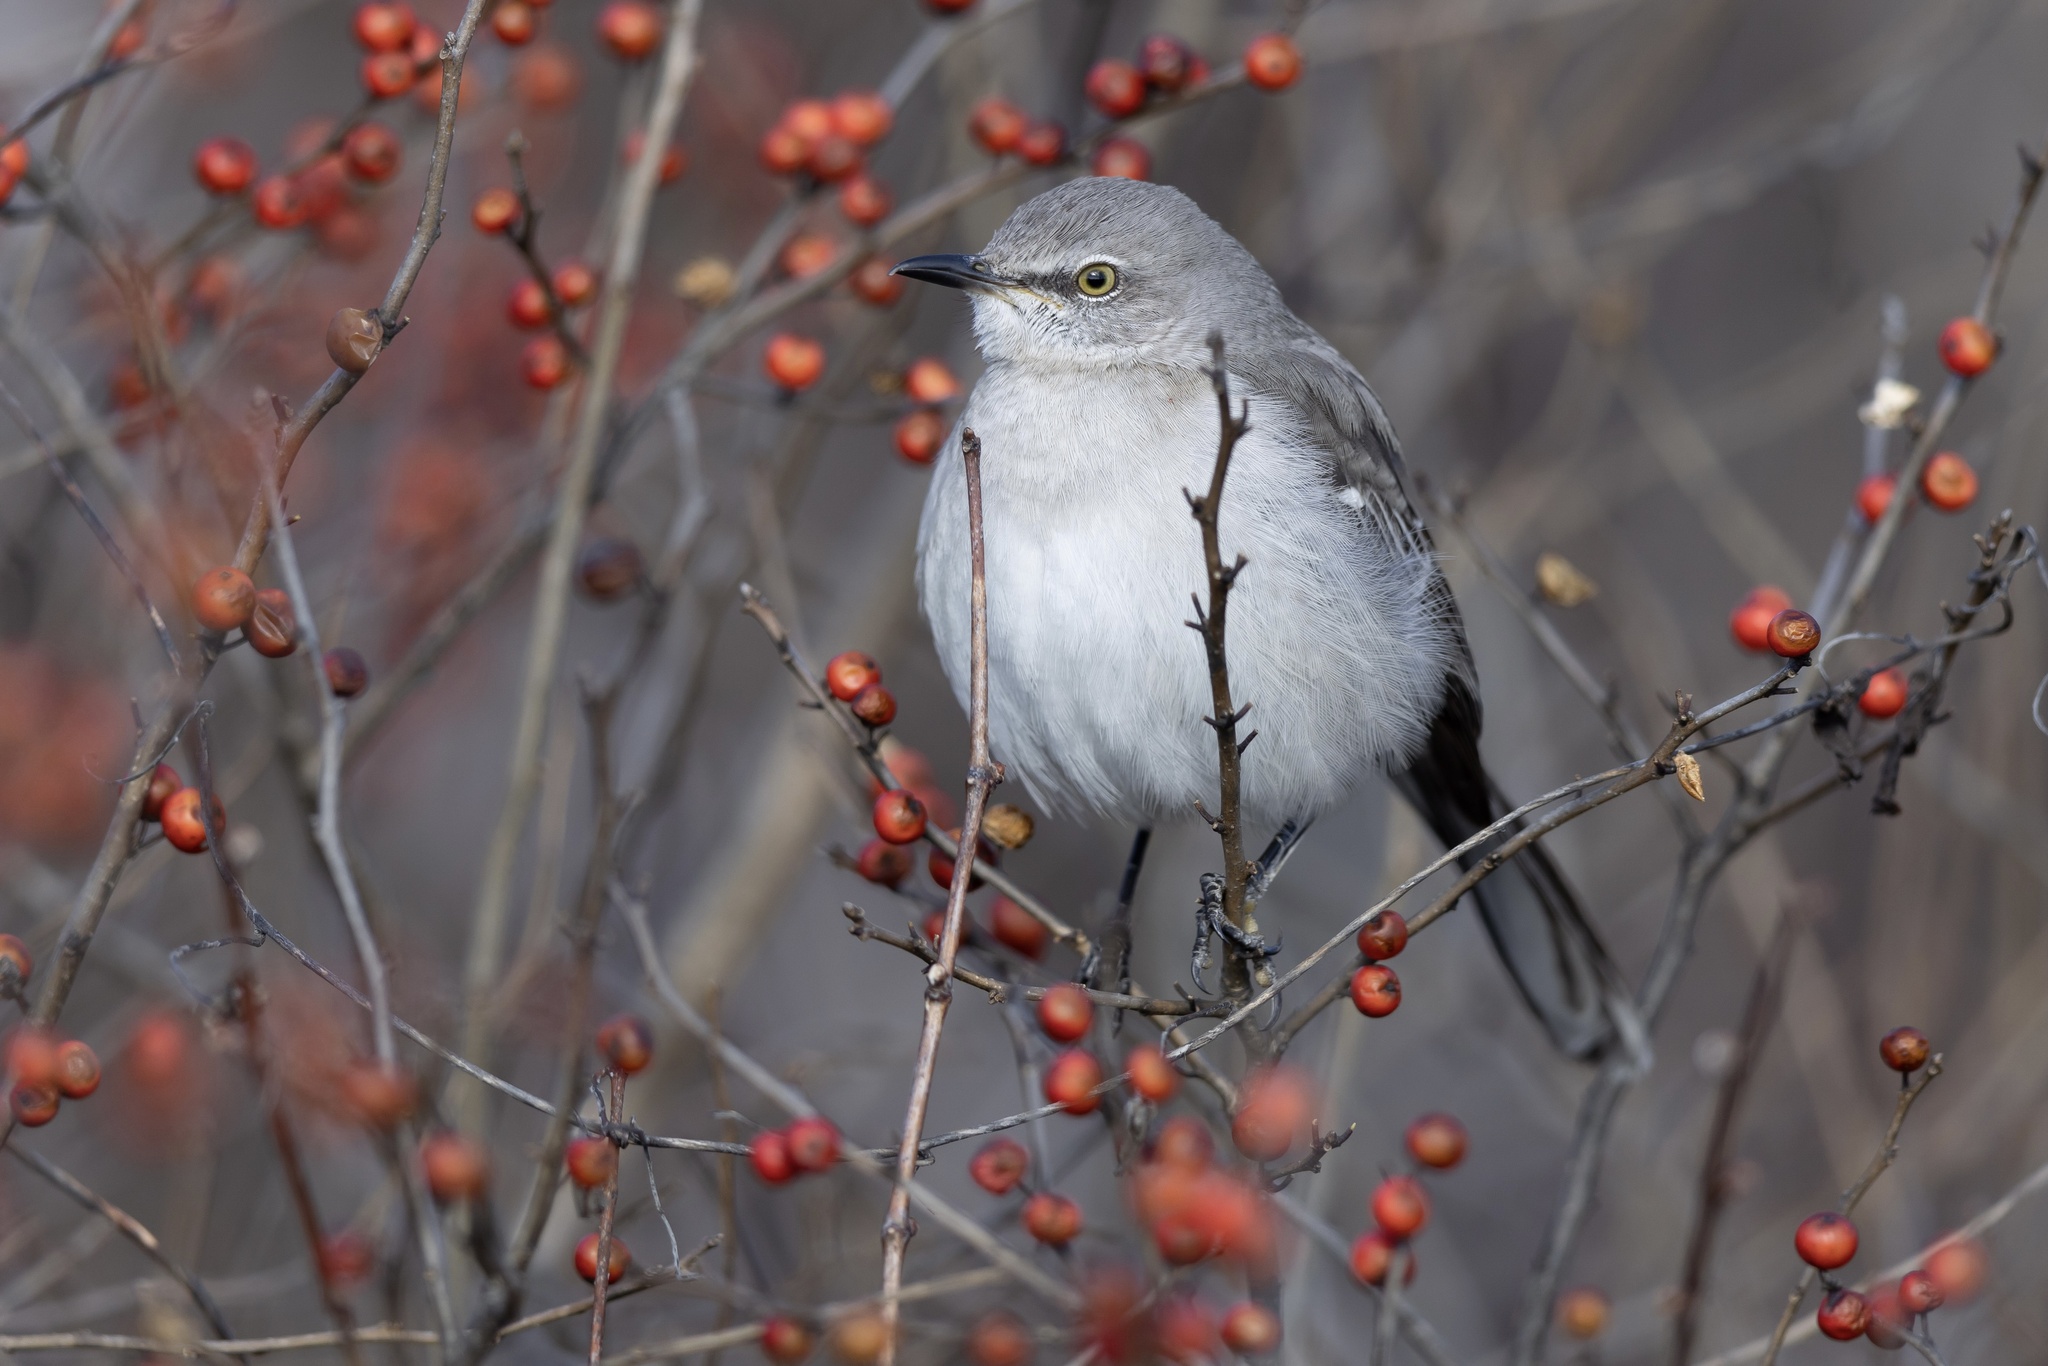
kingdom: Animalia
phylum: Chordata
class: Aves
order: Passeriformes
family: Mimidae
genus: Mimus
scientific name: Mimus polyglottos
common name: Northern mockingbird
